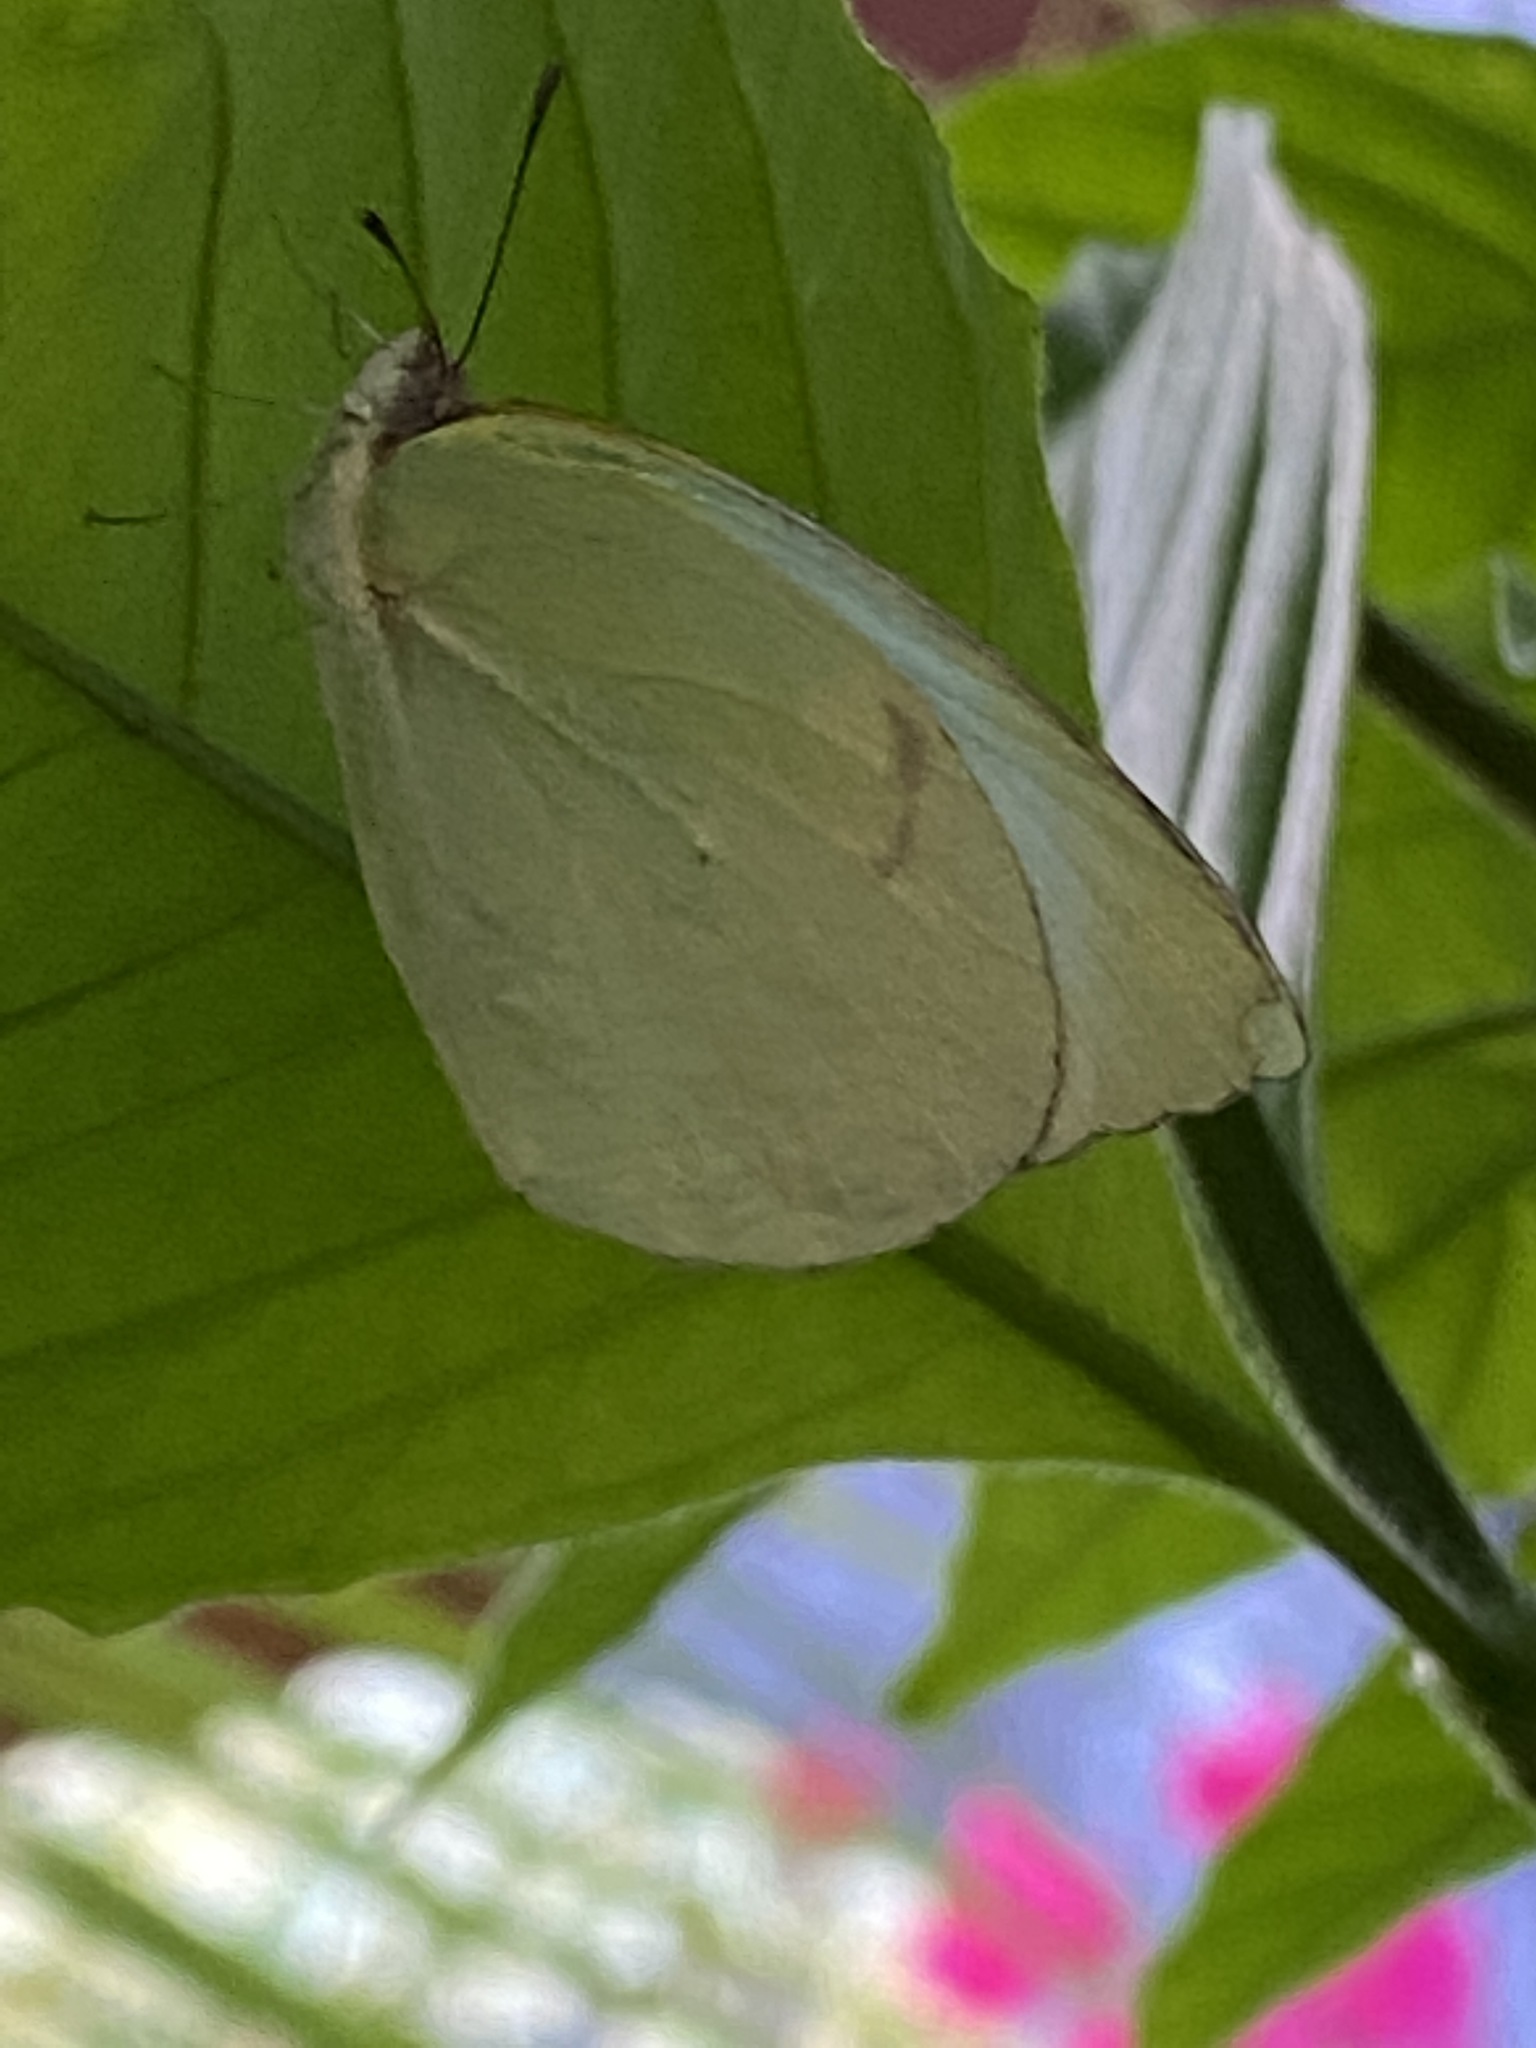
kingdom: Animalia
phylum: Arthropoda
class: Insecta
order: Lepidoptera
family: Pieridae
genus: Kricogonia
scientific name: Kricogonia lyside
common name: Guayacan sulphur,
